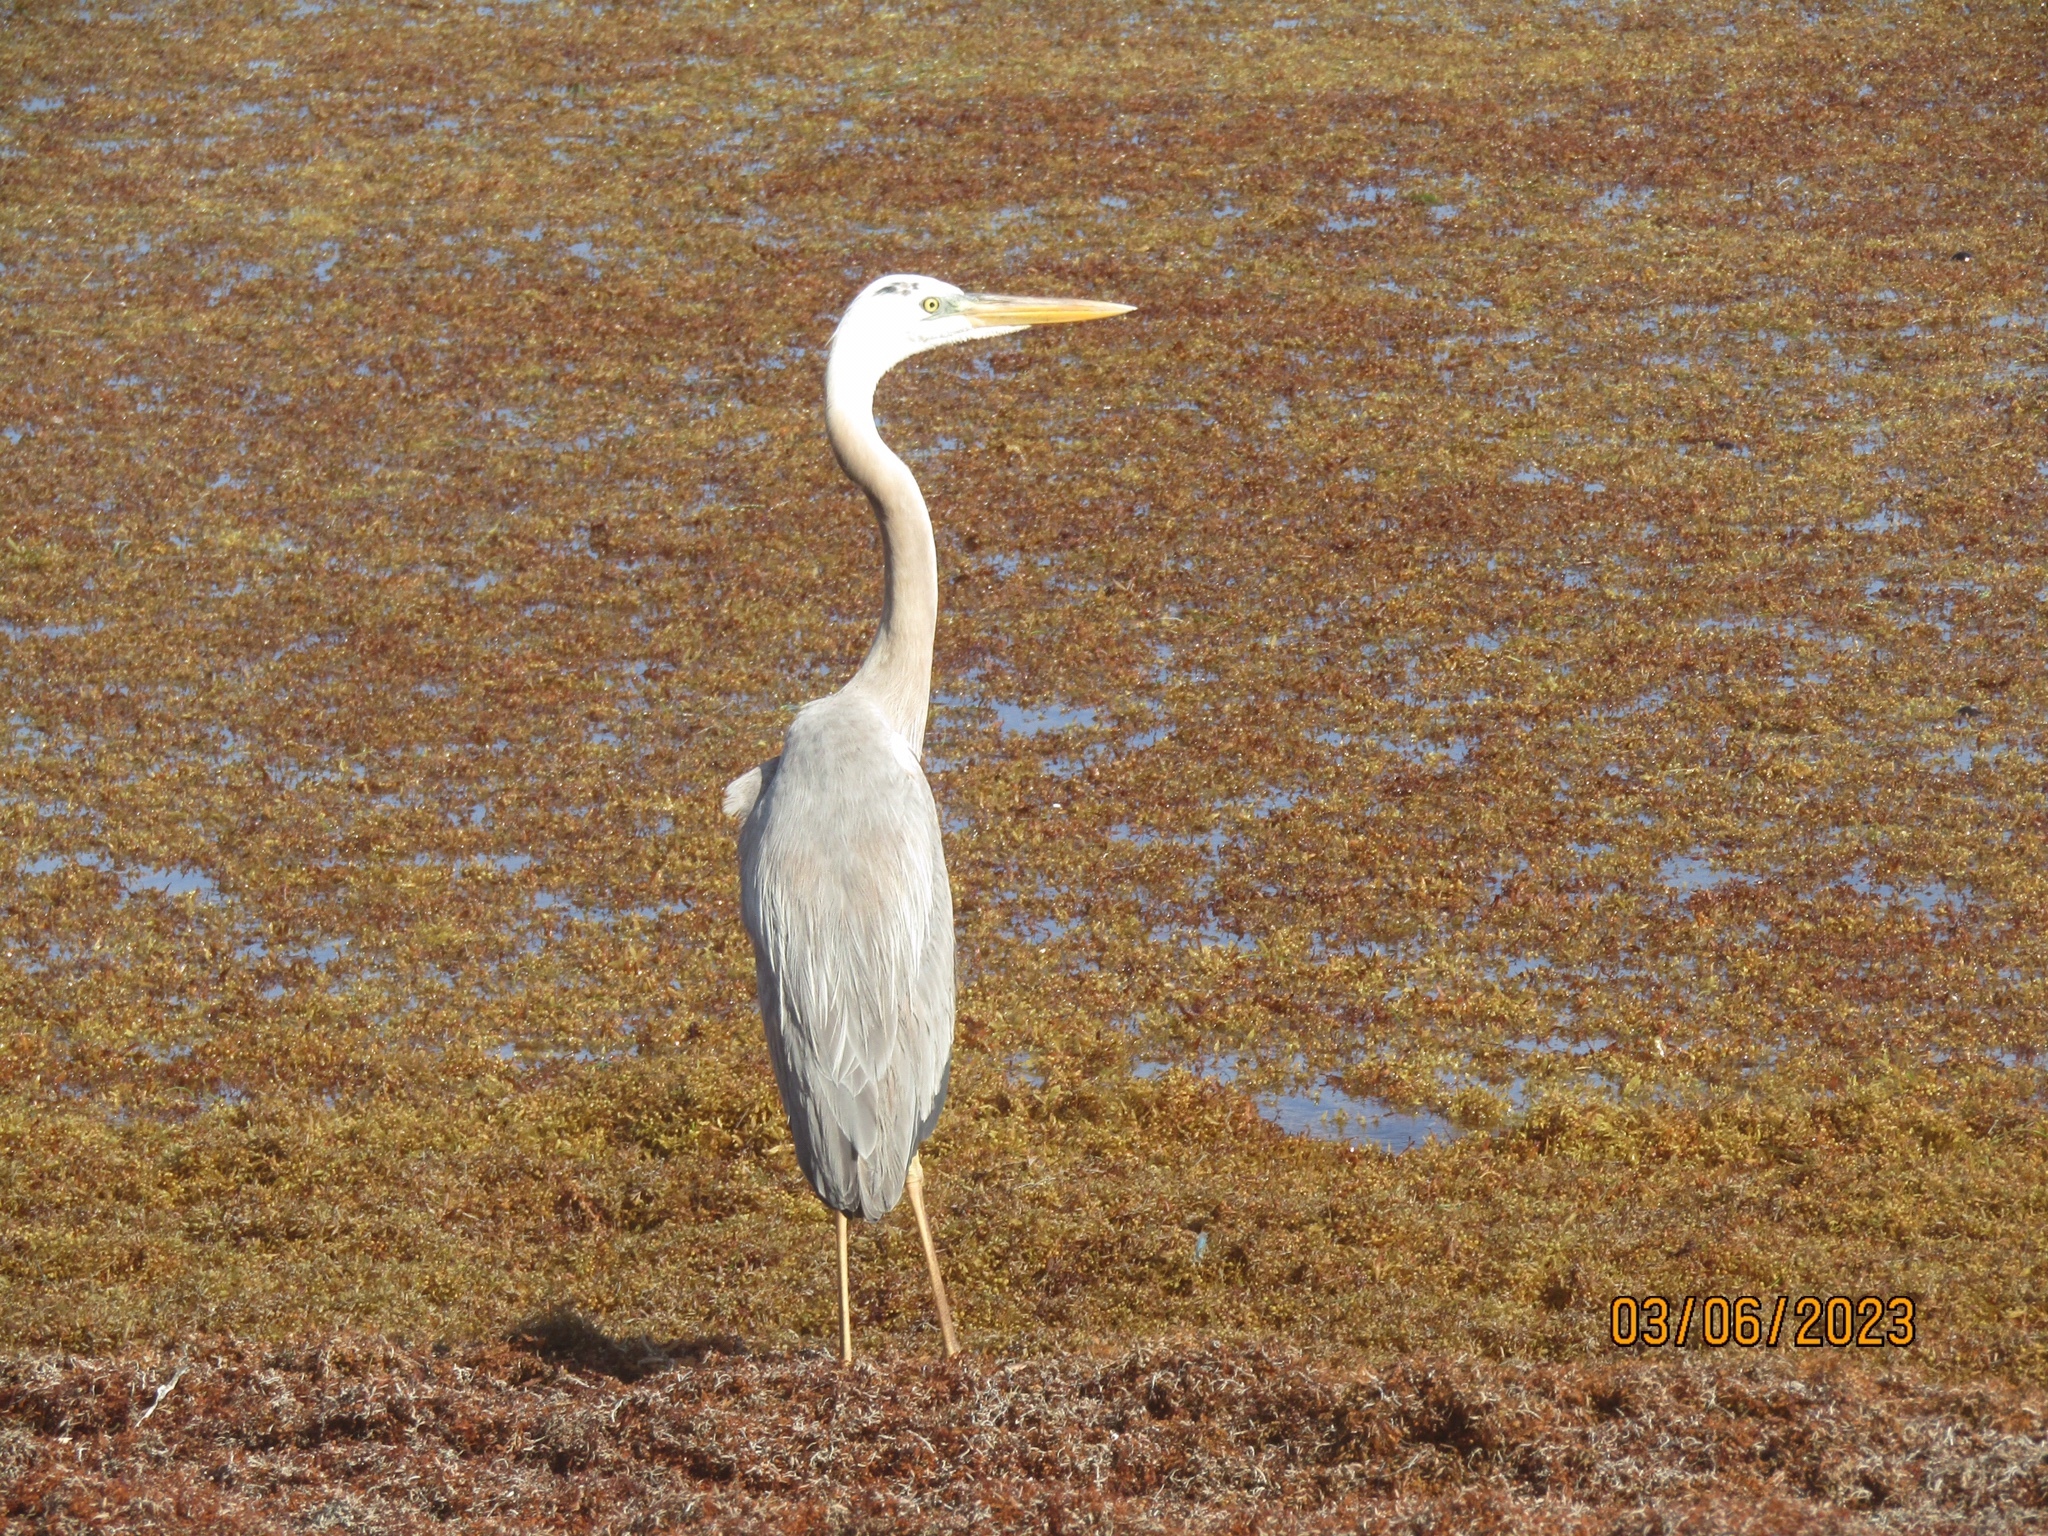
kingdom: Animalia
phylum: Chordata
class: Aves
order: Pelecaniformes
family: Ardeidae
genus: Ardea
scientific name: Ardea
